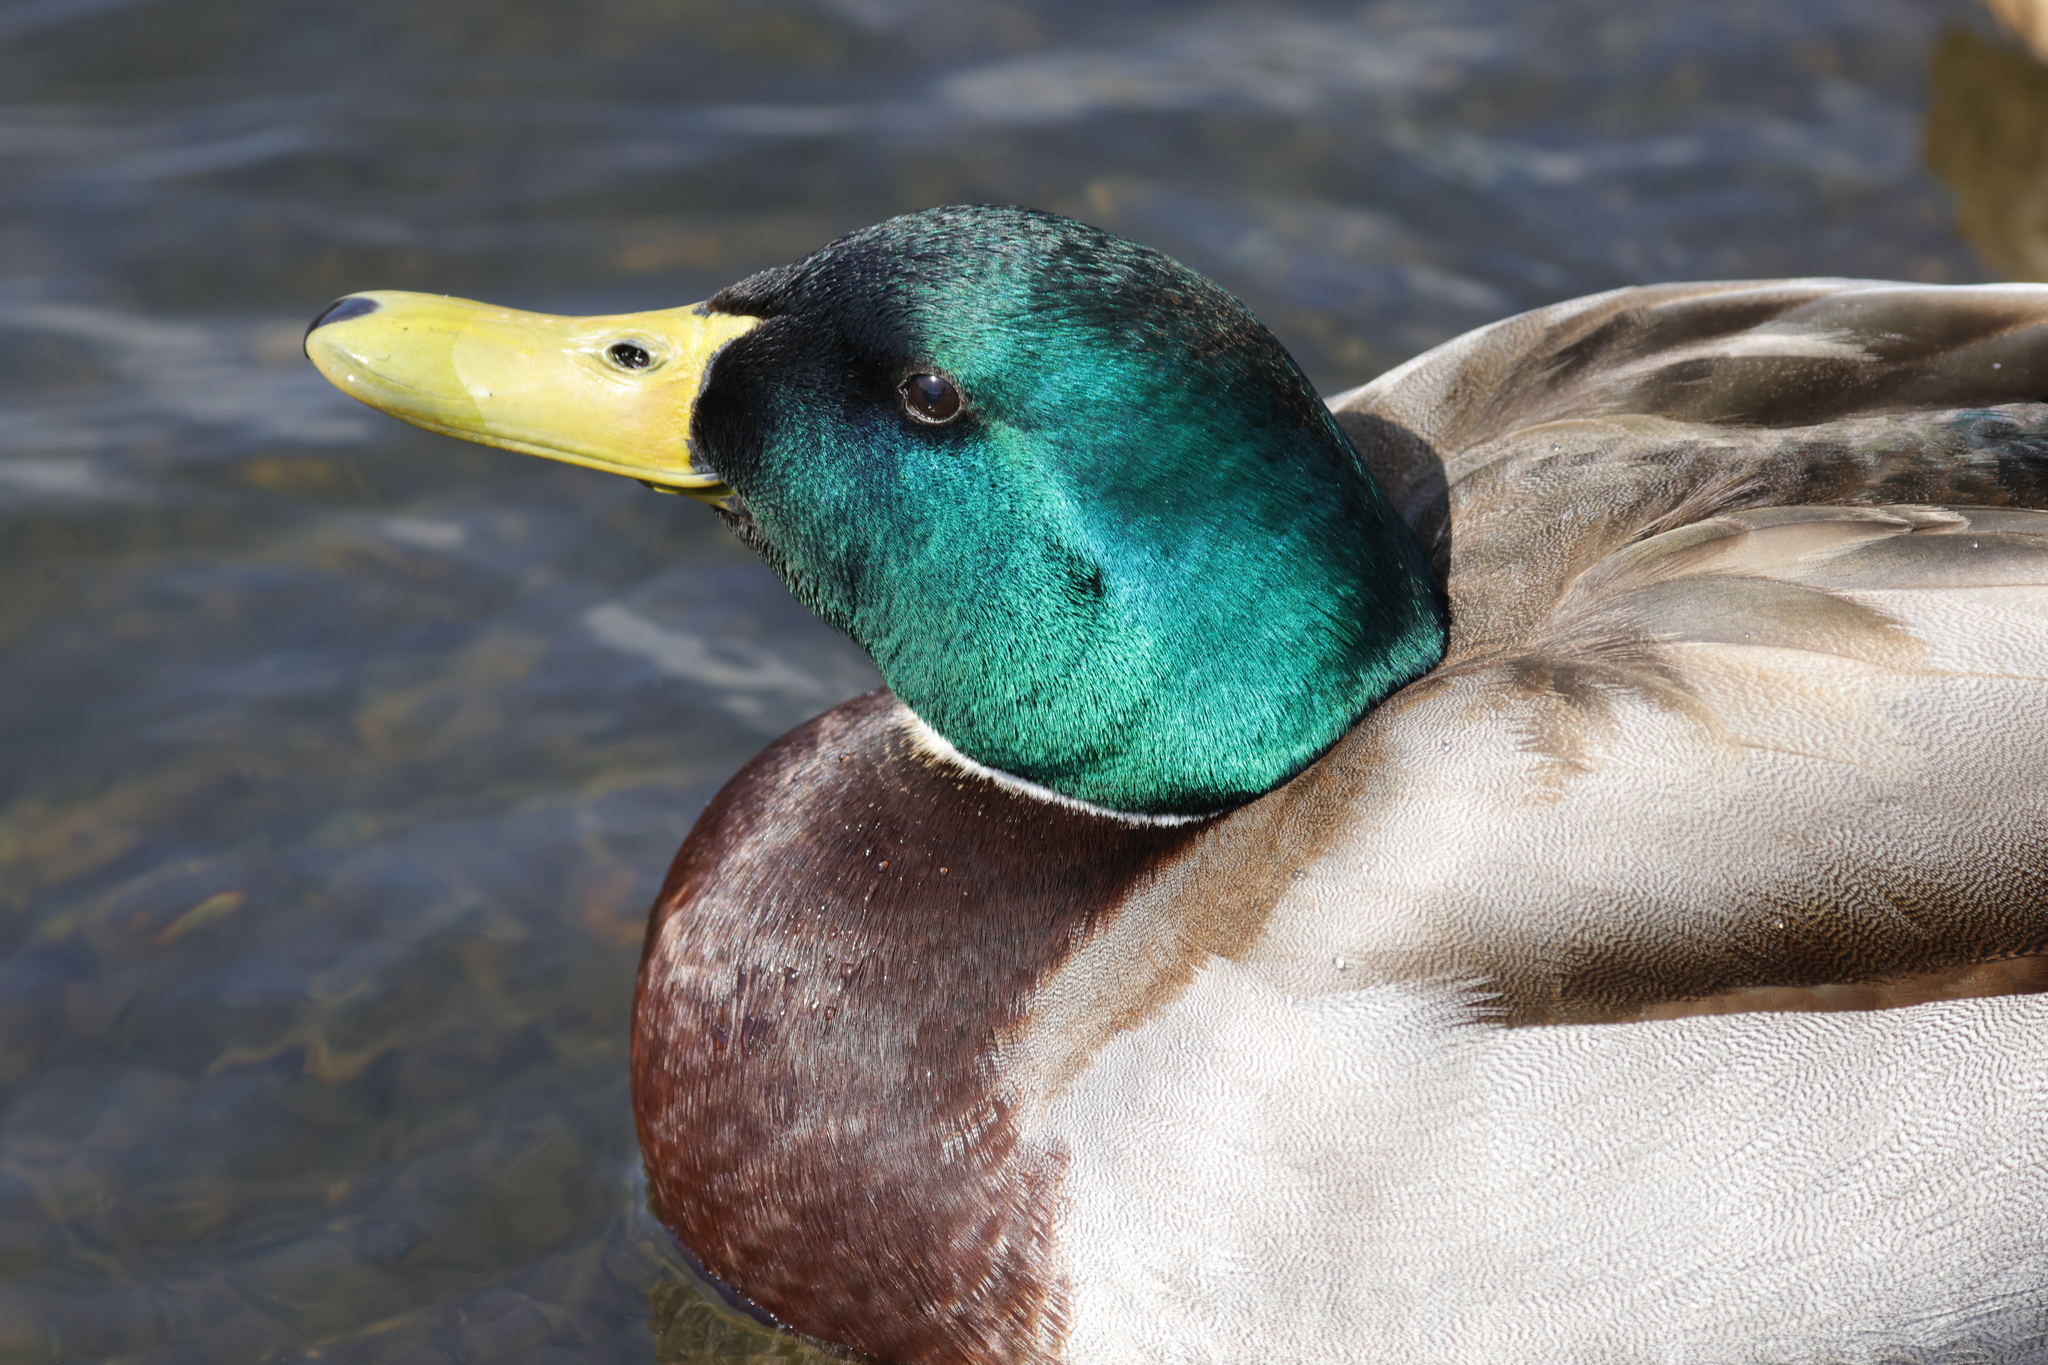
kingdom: Animalia
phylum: Chordata
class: Aves
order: Anseriformes
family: Anatidae
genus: Anas
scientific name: Anas platyrhynchos
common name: Mallard
